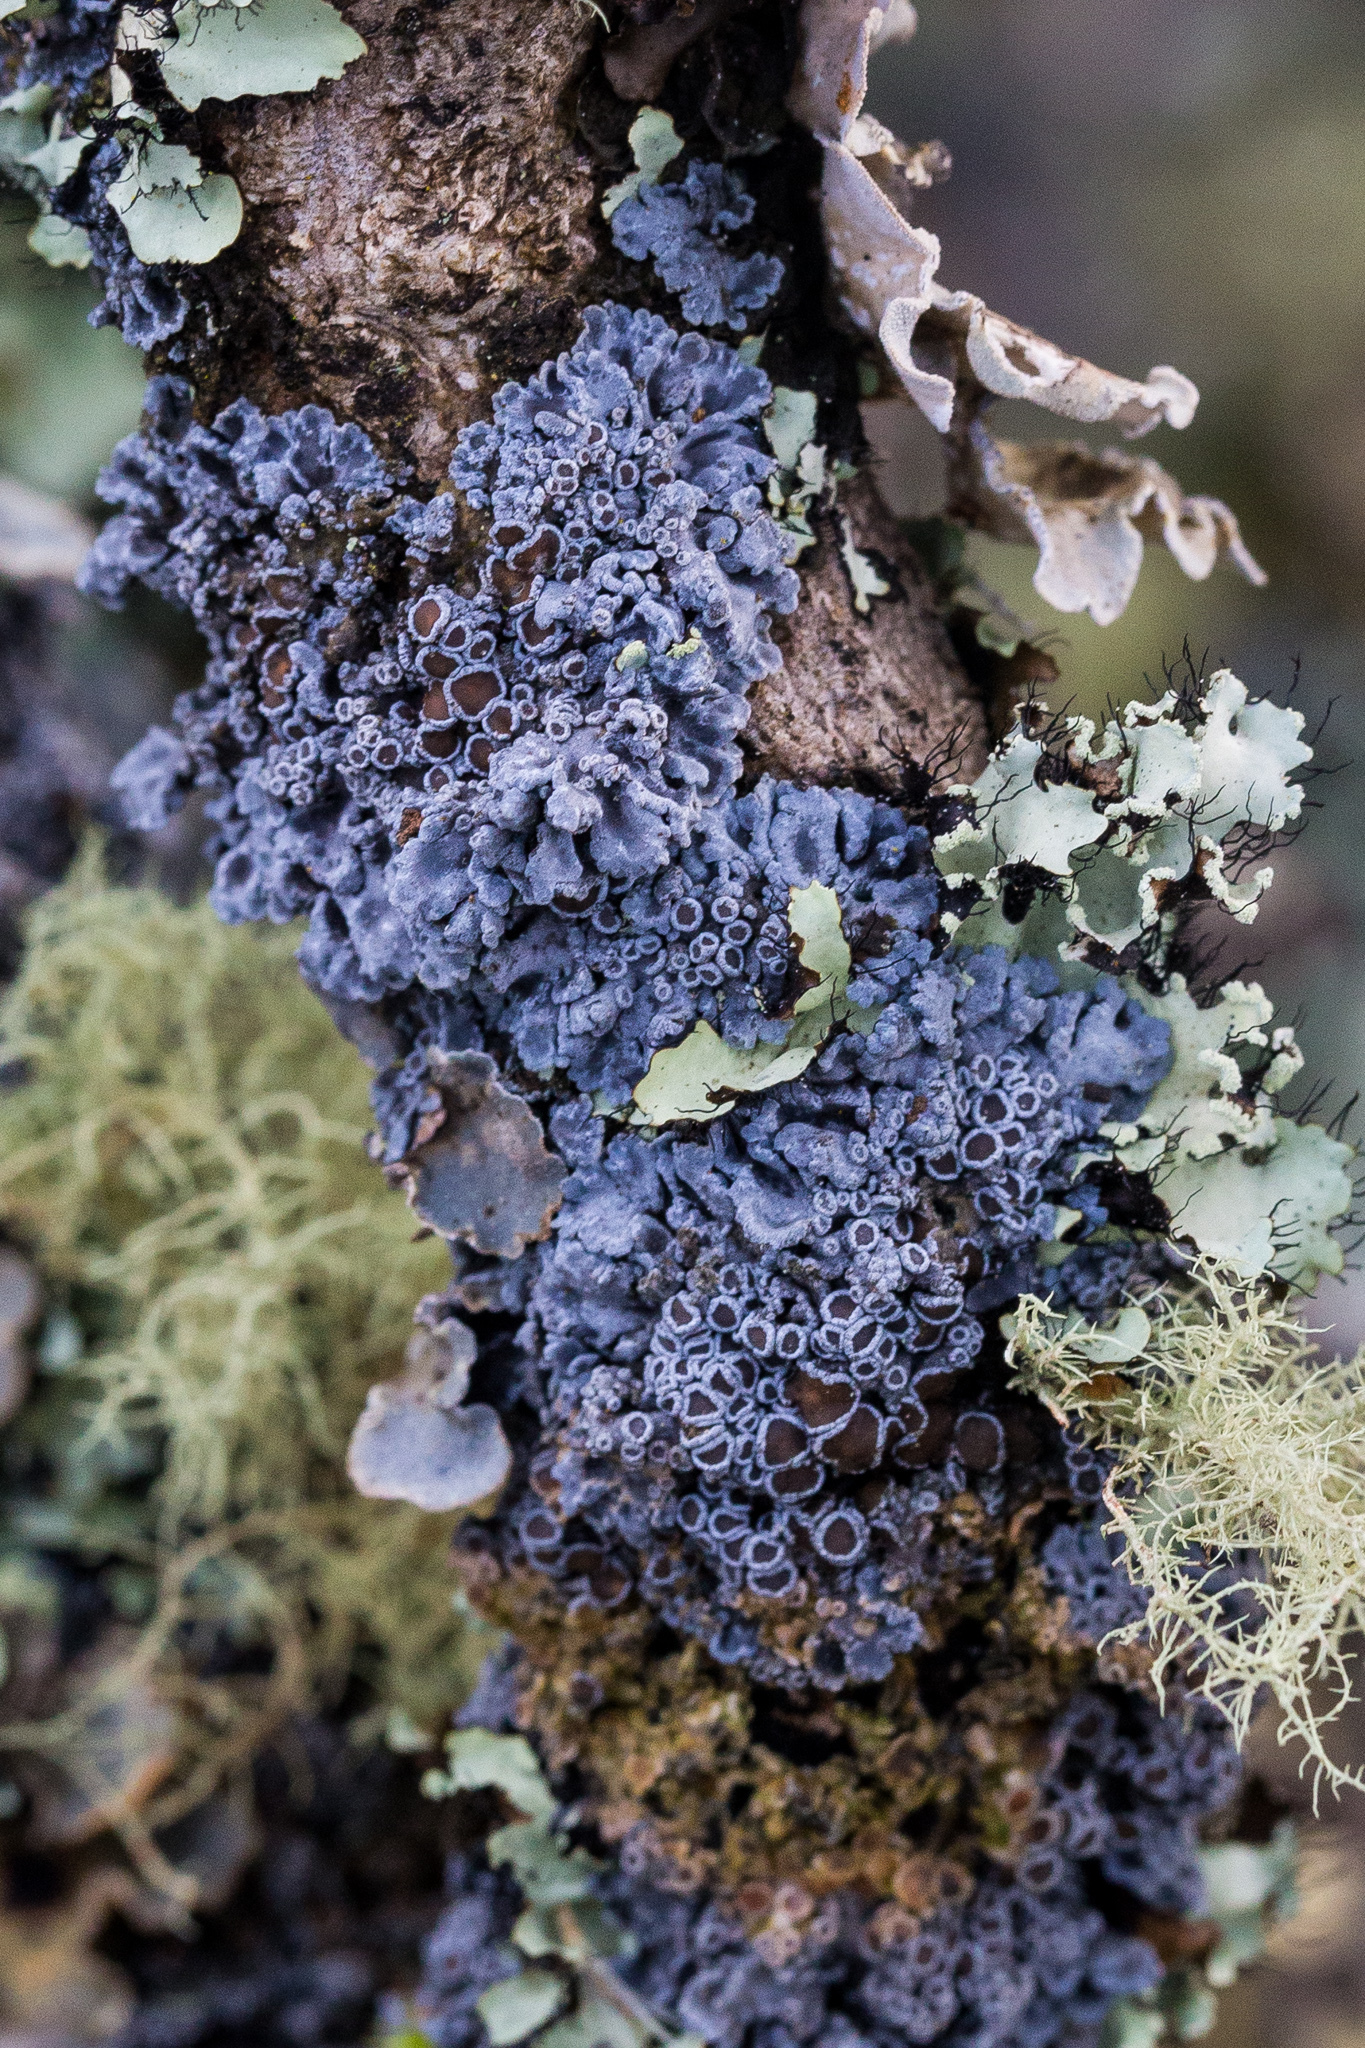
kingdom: Fungi
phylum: Ascomycota
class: Lecanoromycetes
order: Peltigerales
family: Pannariaceae
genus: Pannaria
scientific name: Pannaria rubiginosa
